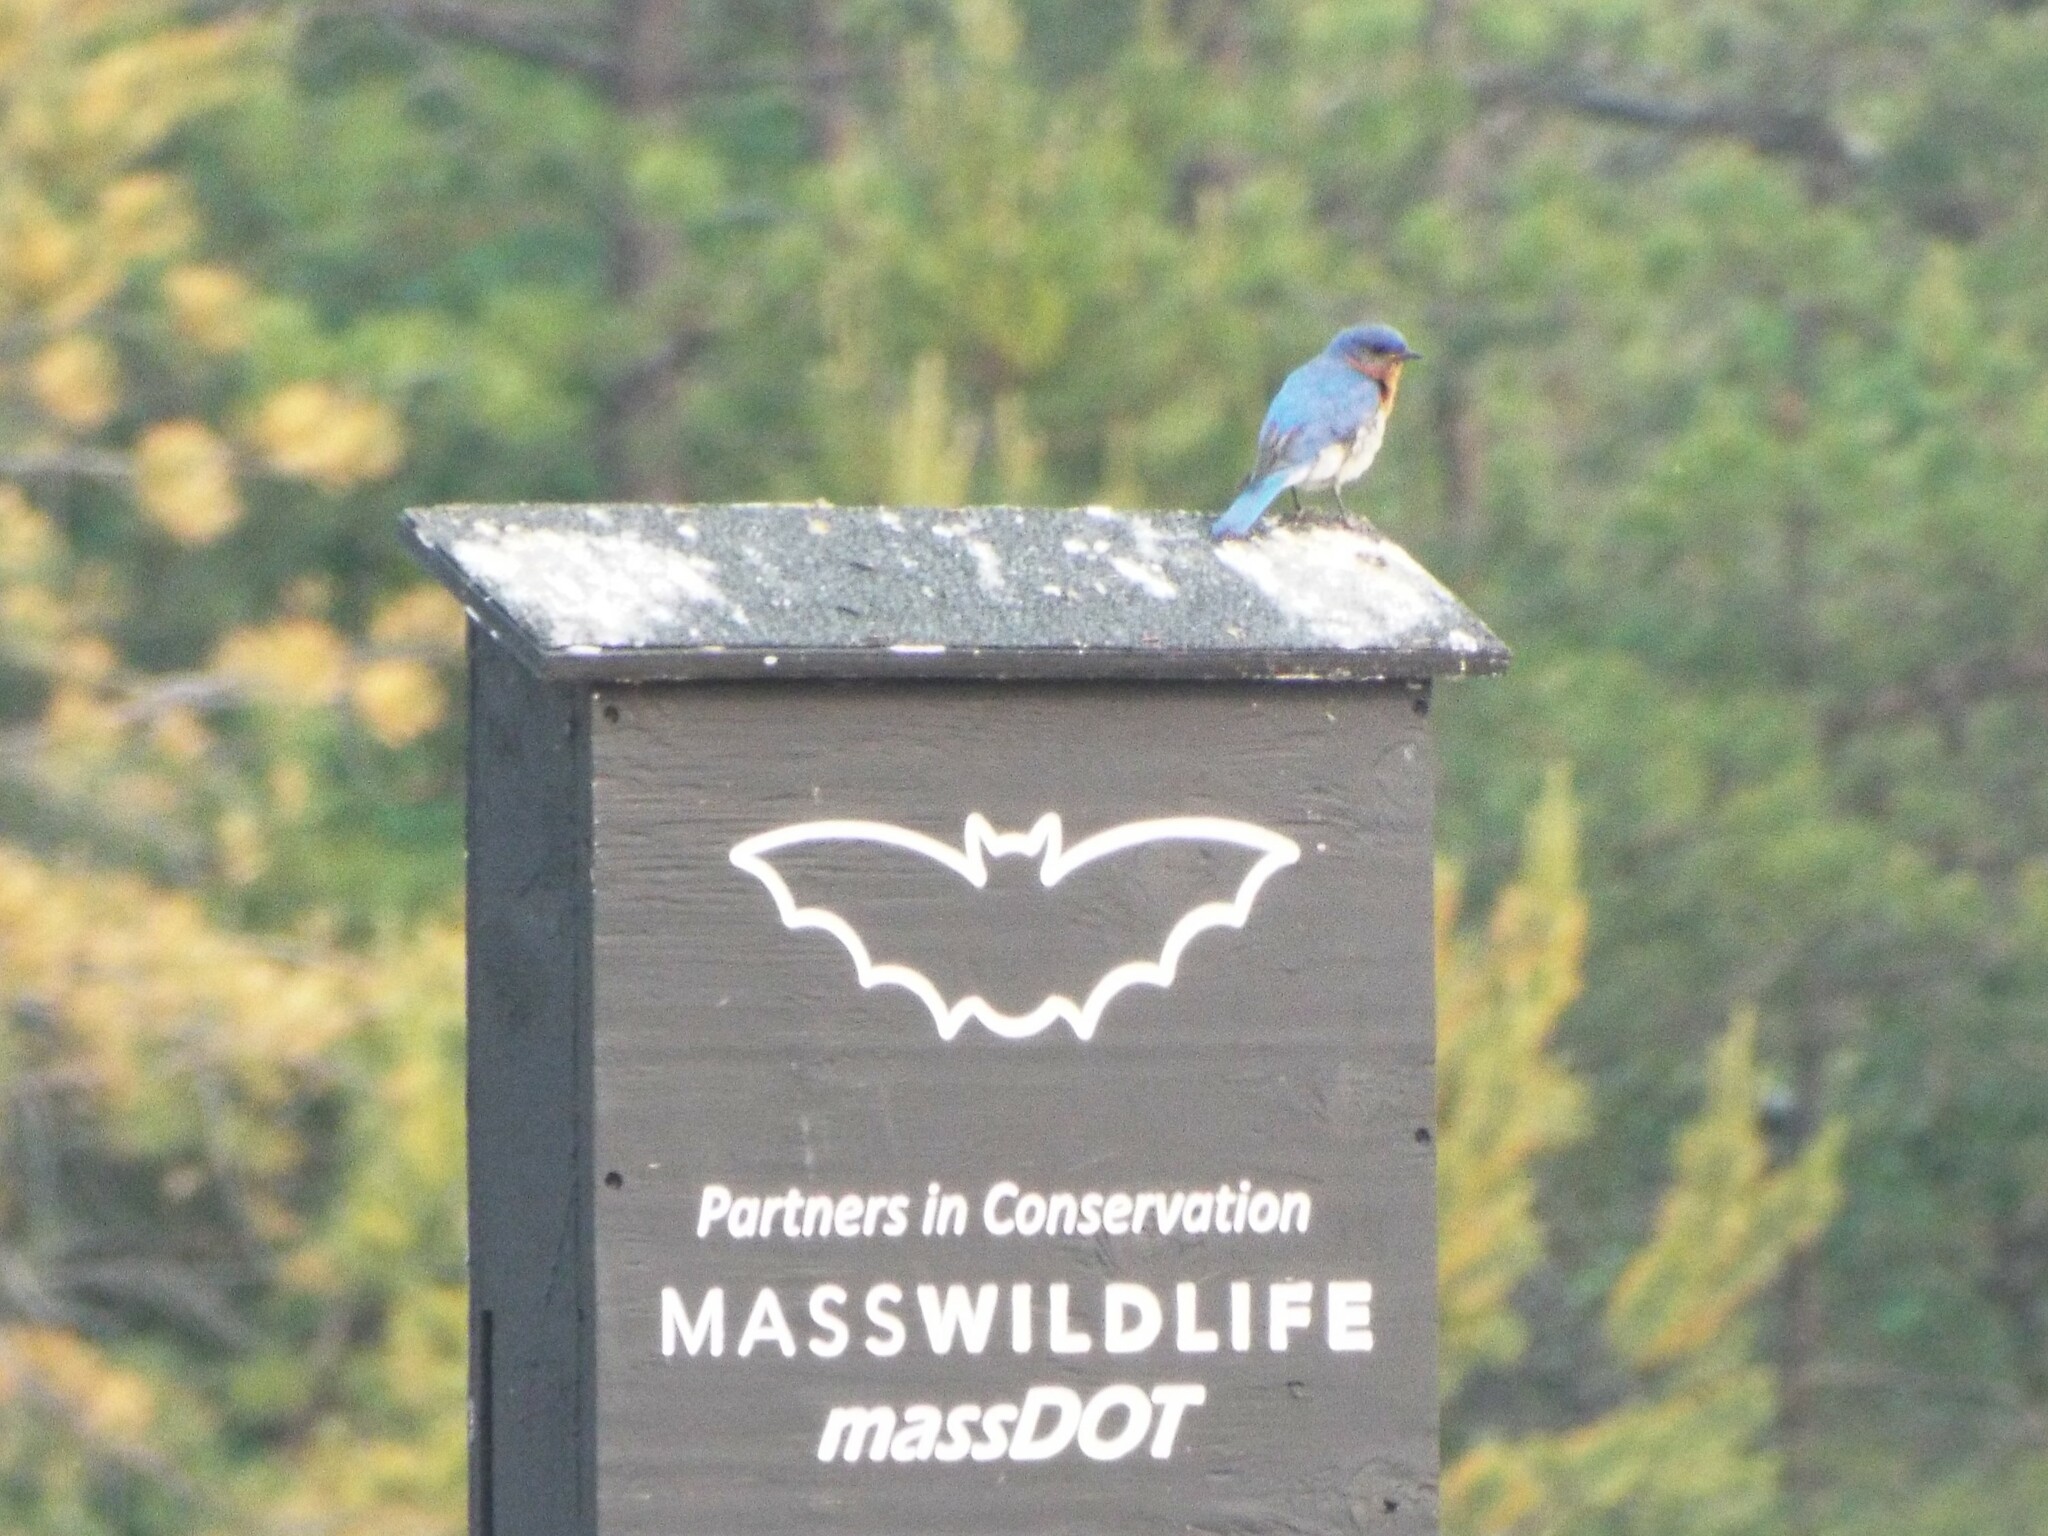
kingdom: Animalia
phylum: Chordata
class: Aves
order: Passeriformes
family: Turdidae
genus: Sialia
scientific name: Sialia sialis
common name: Eastern bluebird
